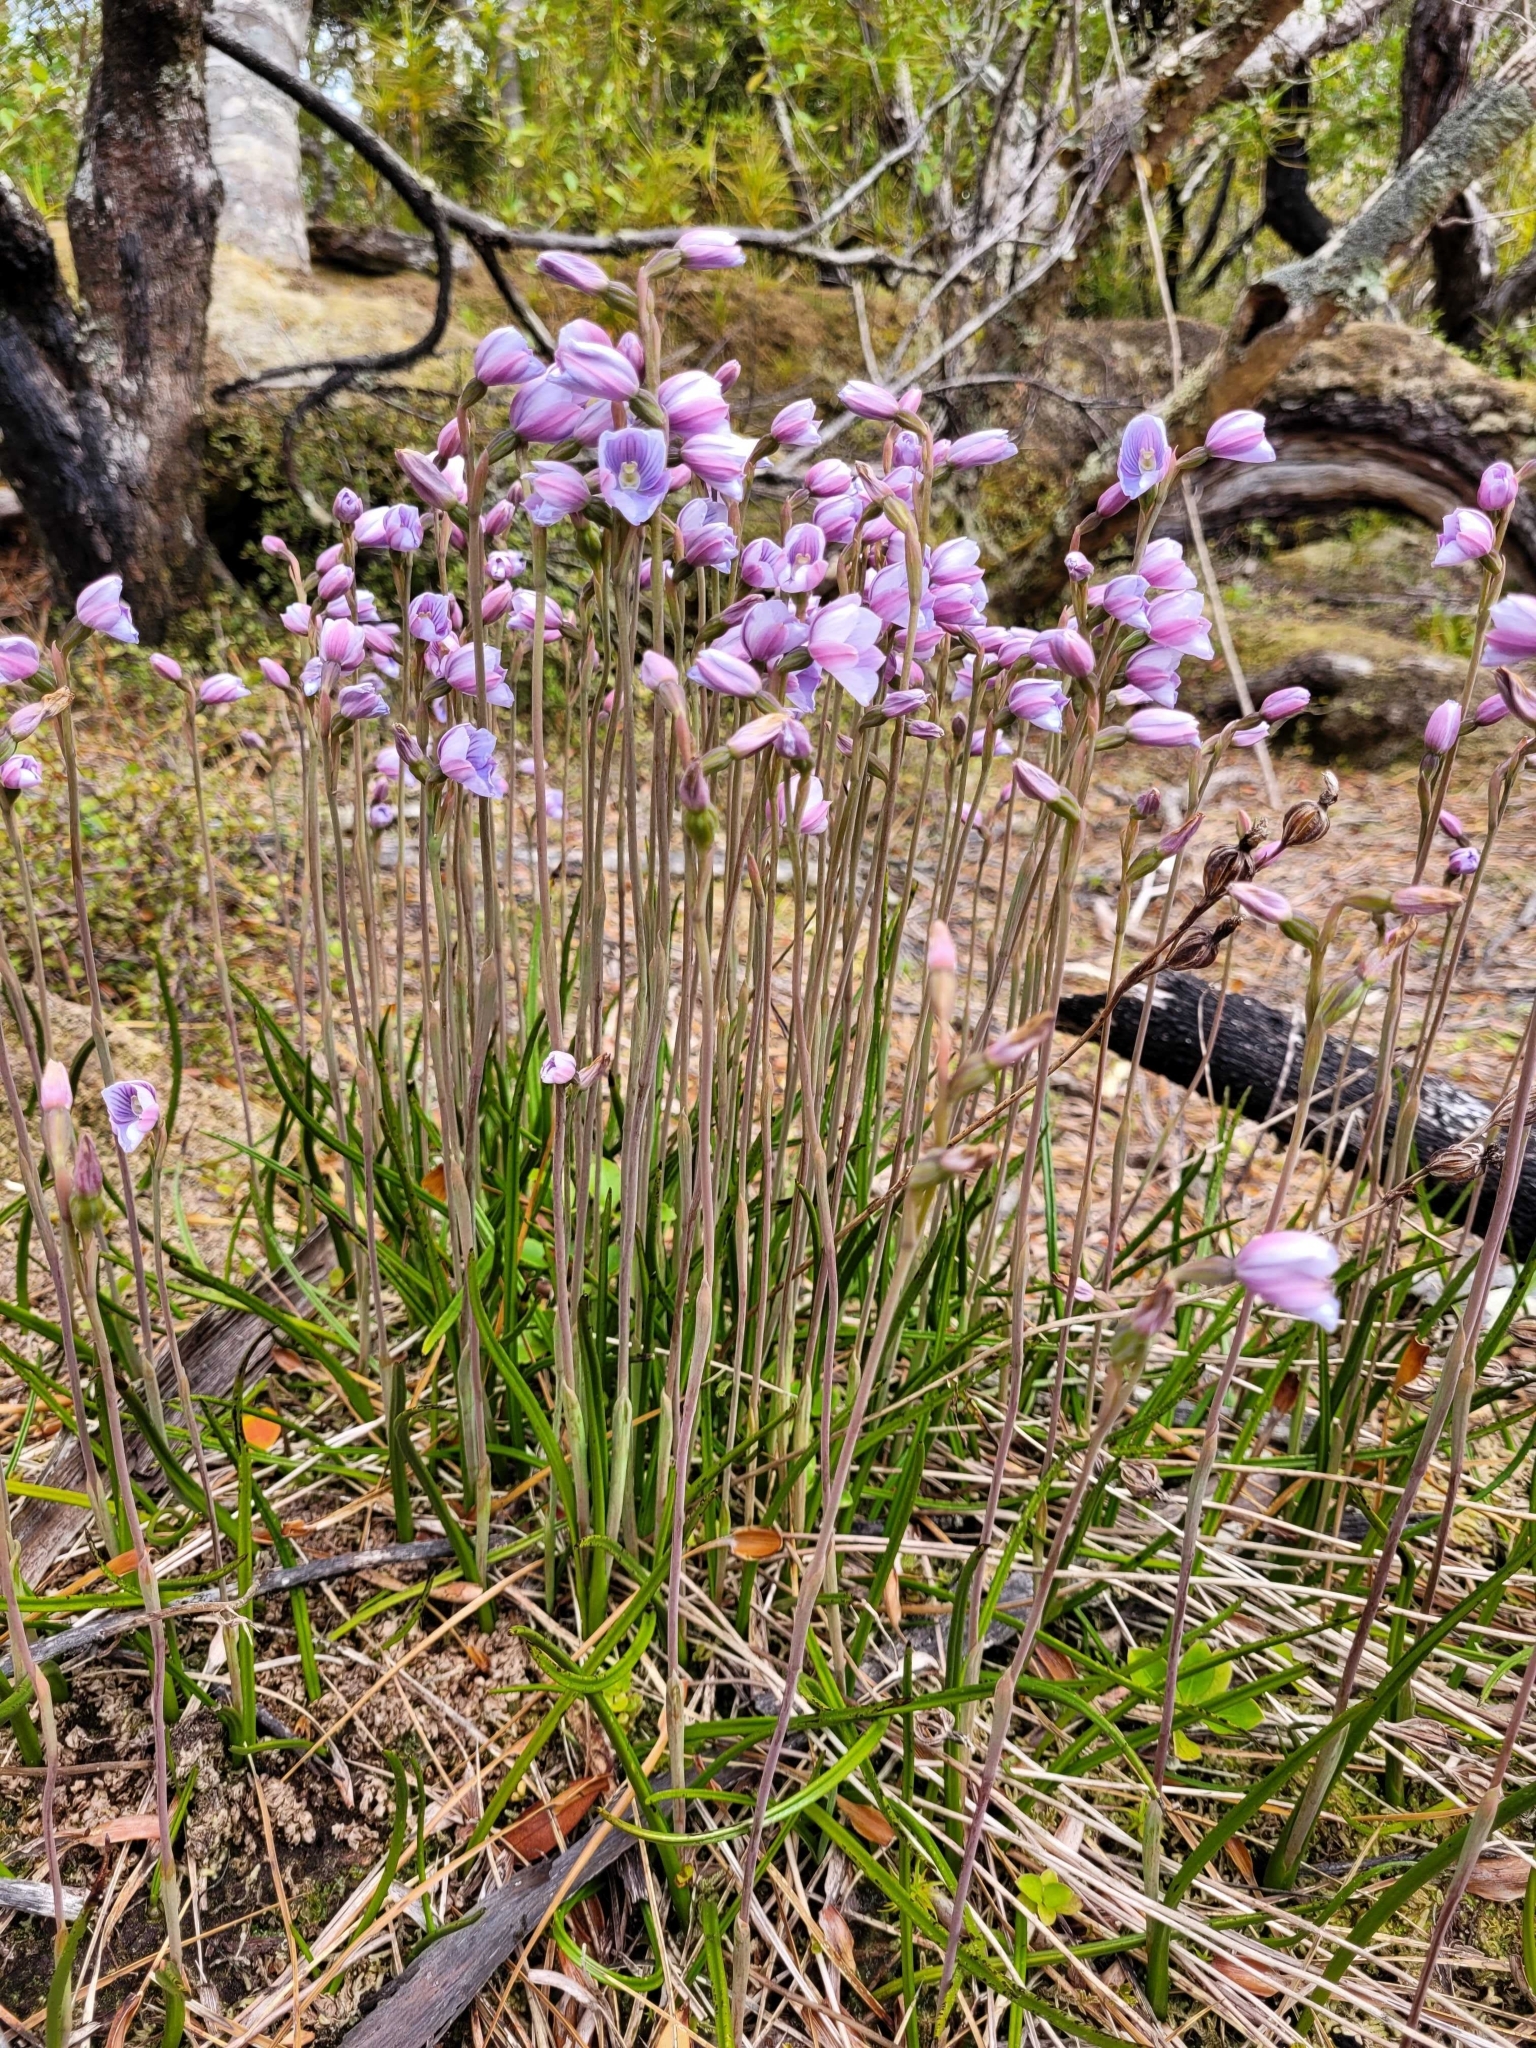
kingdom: Plantae
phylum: Tracheophyta
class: Liliopsida
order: Asparagales
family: Orchidaceae
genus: Thelymitra
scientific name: Thelymitra cyanea
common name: Blue sun-orchid
